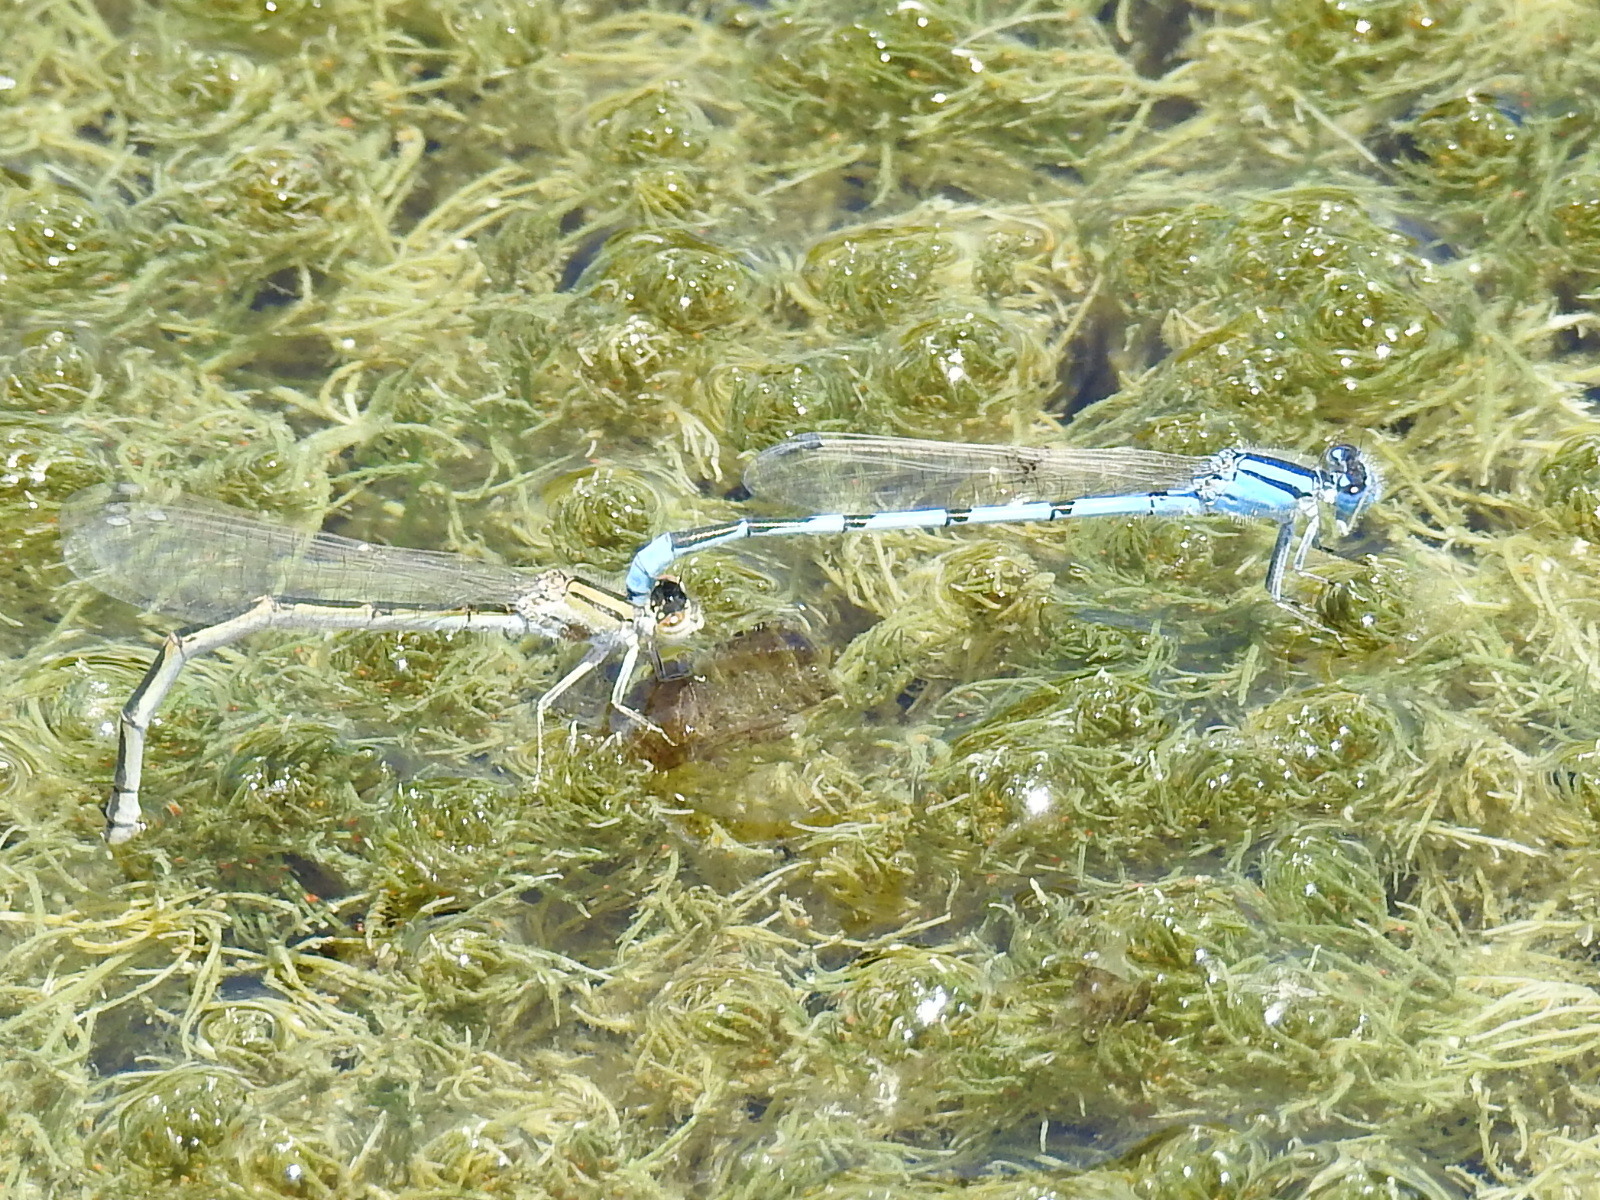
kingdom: Animalia
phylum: Arthropoda
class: Insecta
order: Odonata
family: Coenagrionidae
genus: Enallagma
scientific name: Enallagma civile
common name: Damselfly
